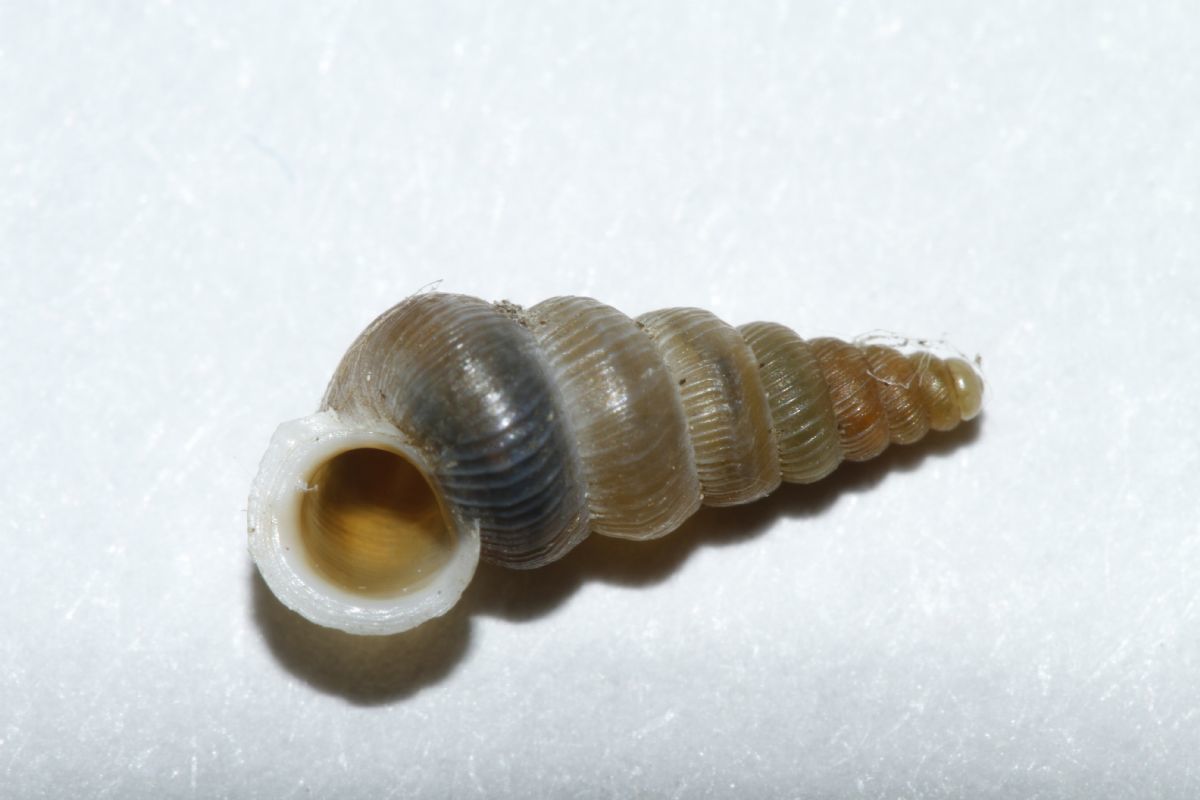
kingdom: Animalia
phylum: Mollusca
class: Gastropoda
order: Architaenioglossa
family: Cochlostomatidae
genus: Cochlostoma
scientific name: Cochlostoma patulum
